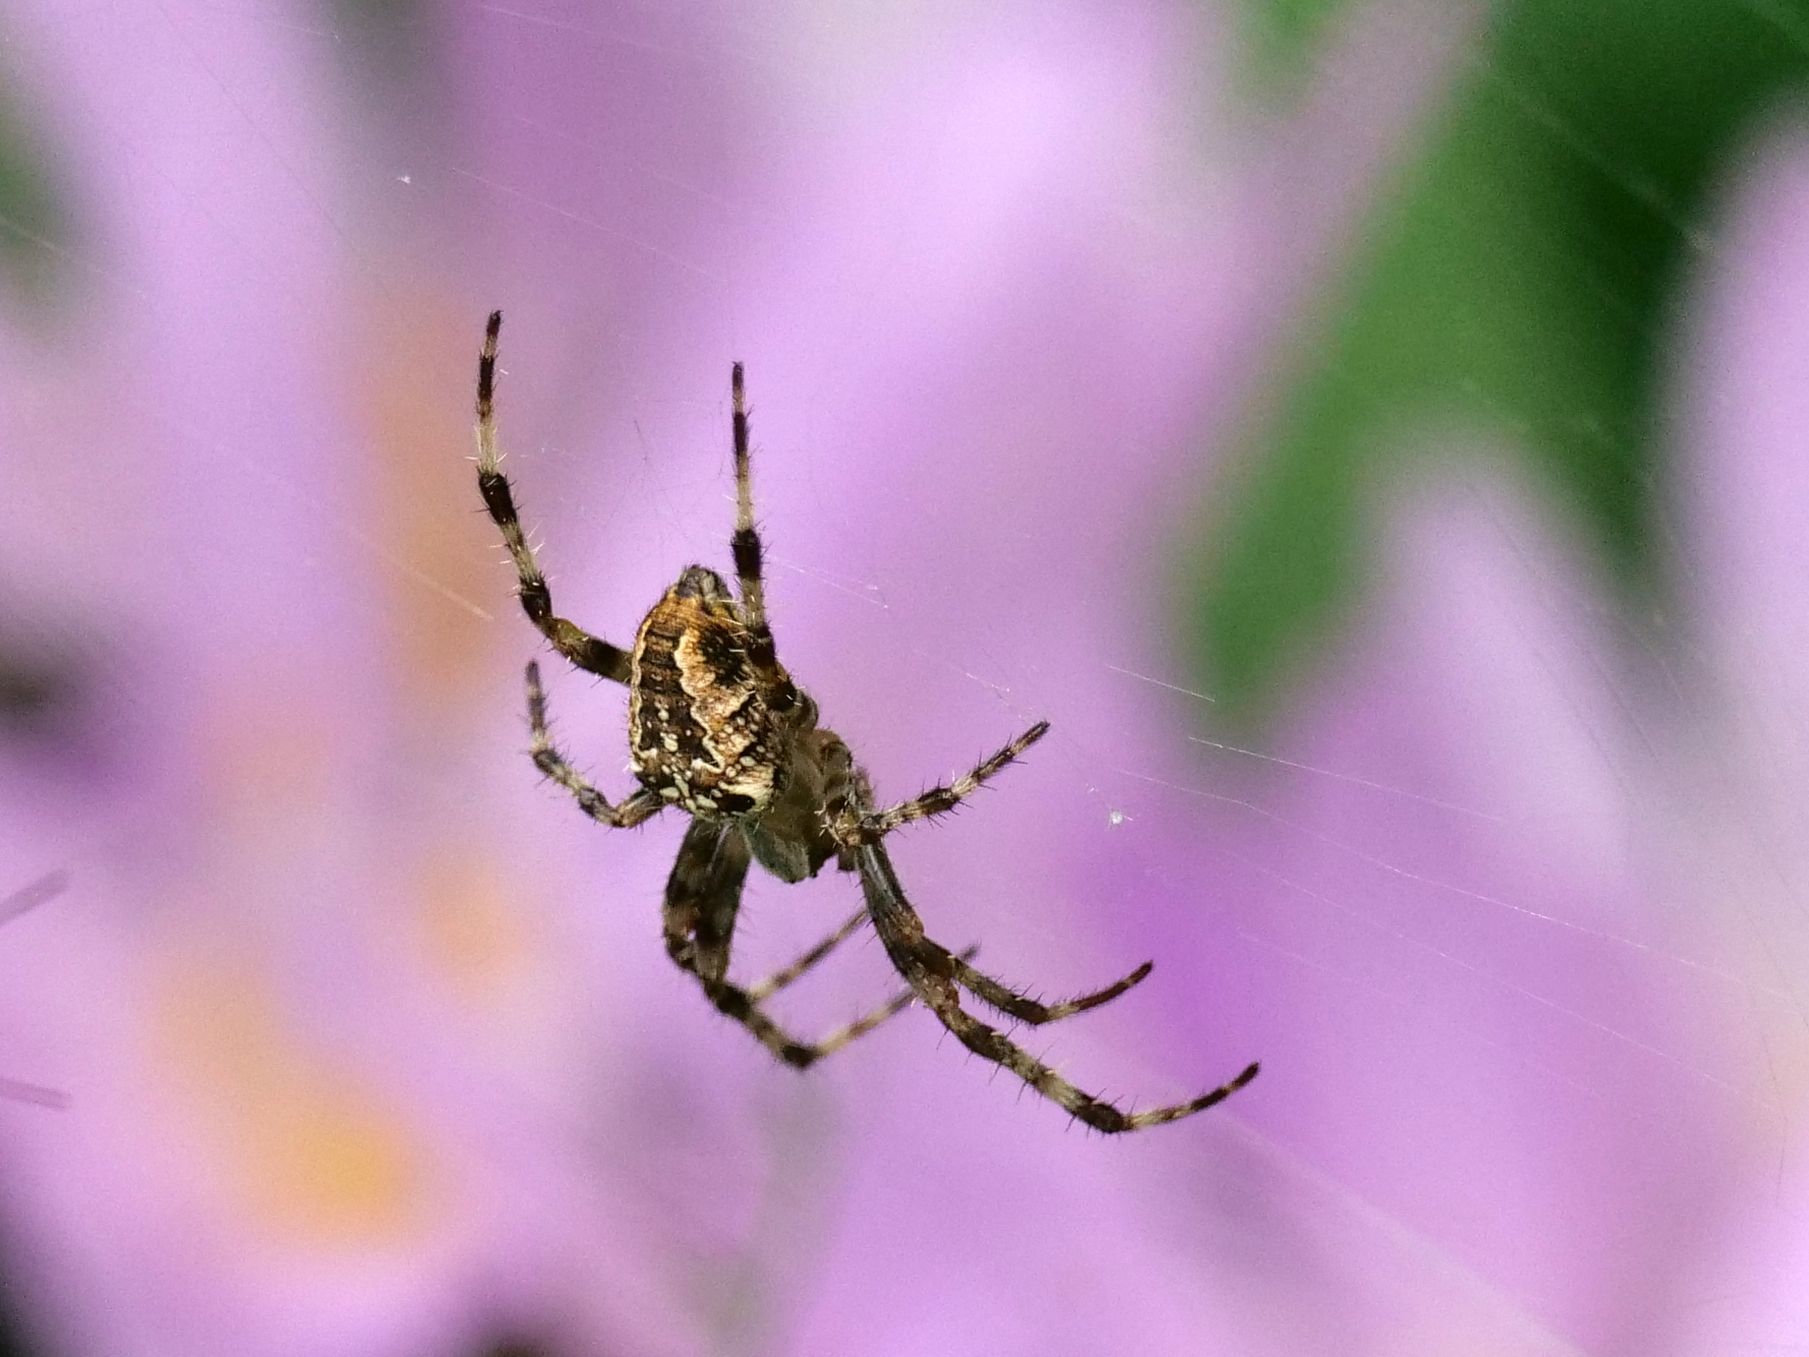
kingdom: Animalia
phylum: Arthropoda
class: Arachnida
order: Araneae
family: Araneidae
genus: Araneus
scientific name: Araneus diadematus
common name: Cross orbweaver
